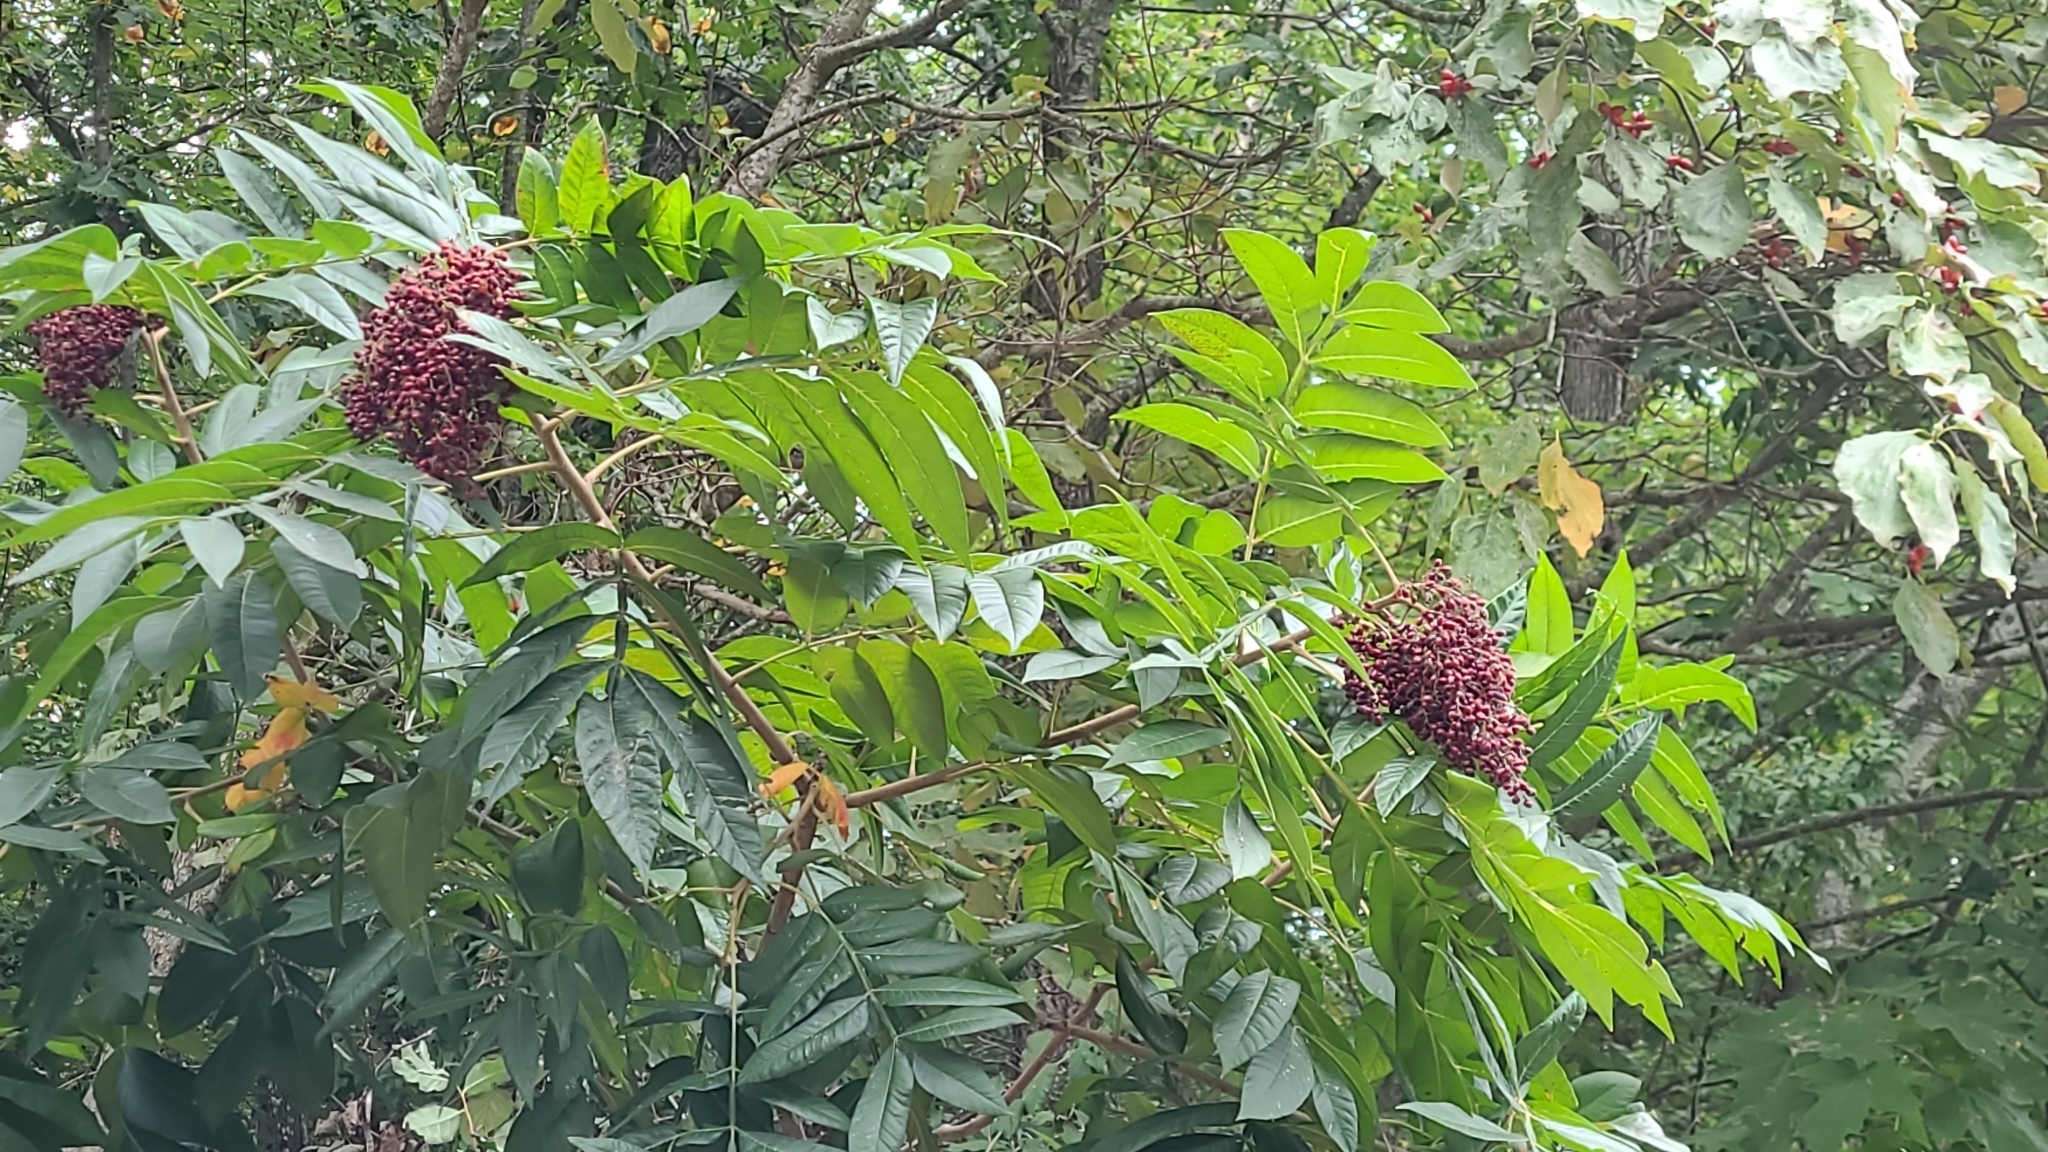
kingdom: Plantae
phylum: Tracheophyta
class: Magnoliopsida
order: Sapindales
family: Anacardiaceae
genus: Rhus
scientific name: Rhus copallina
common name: Shining sumac
